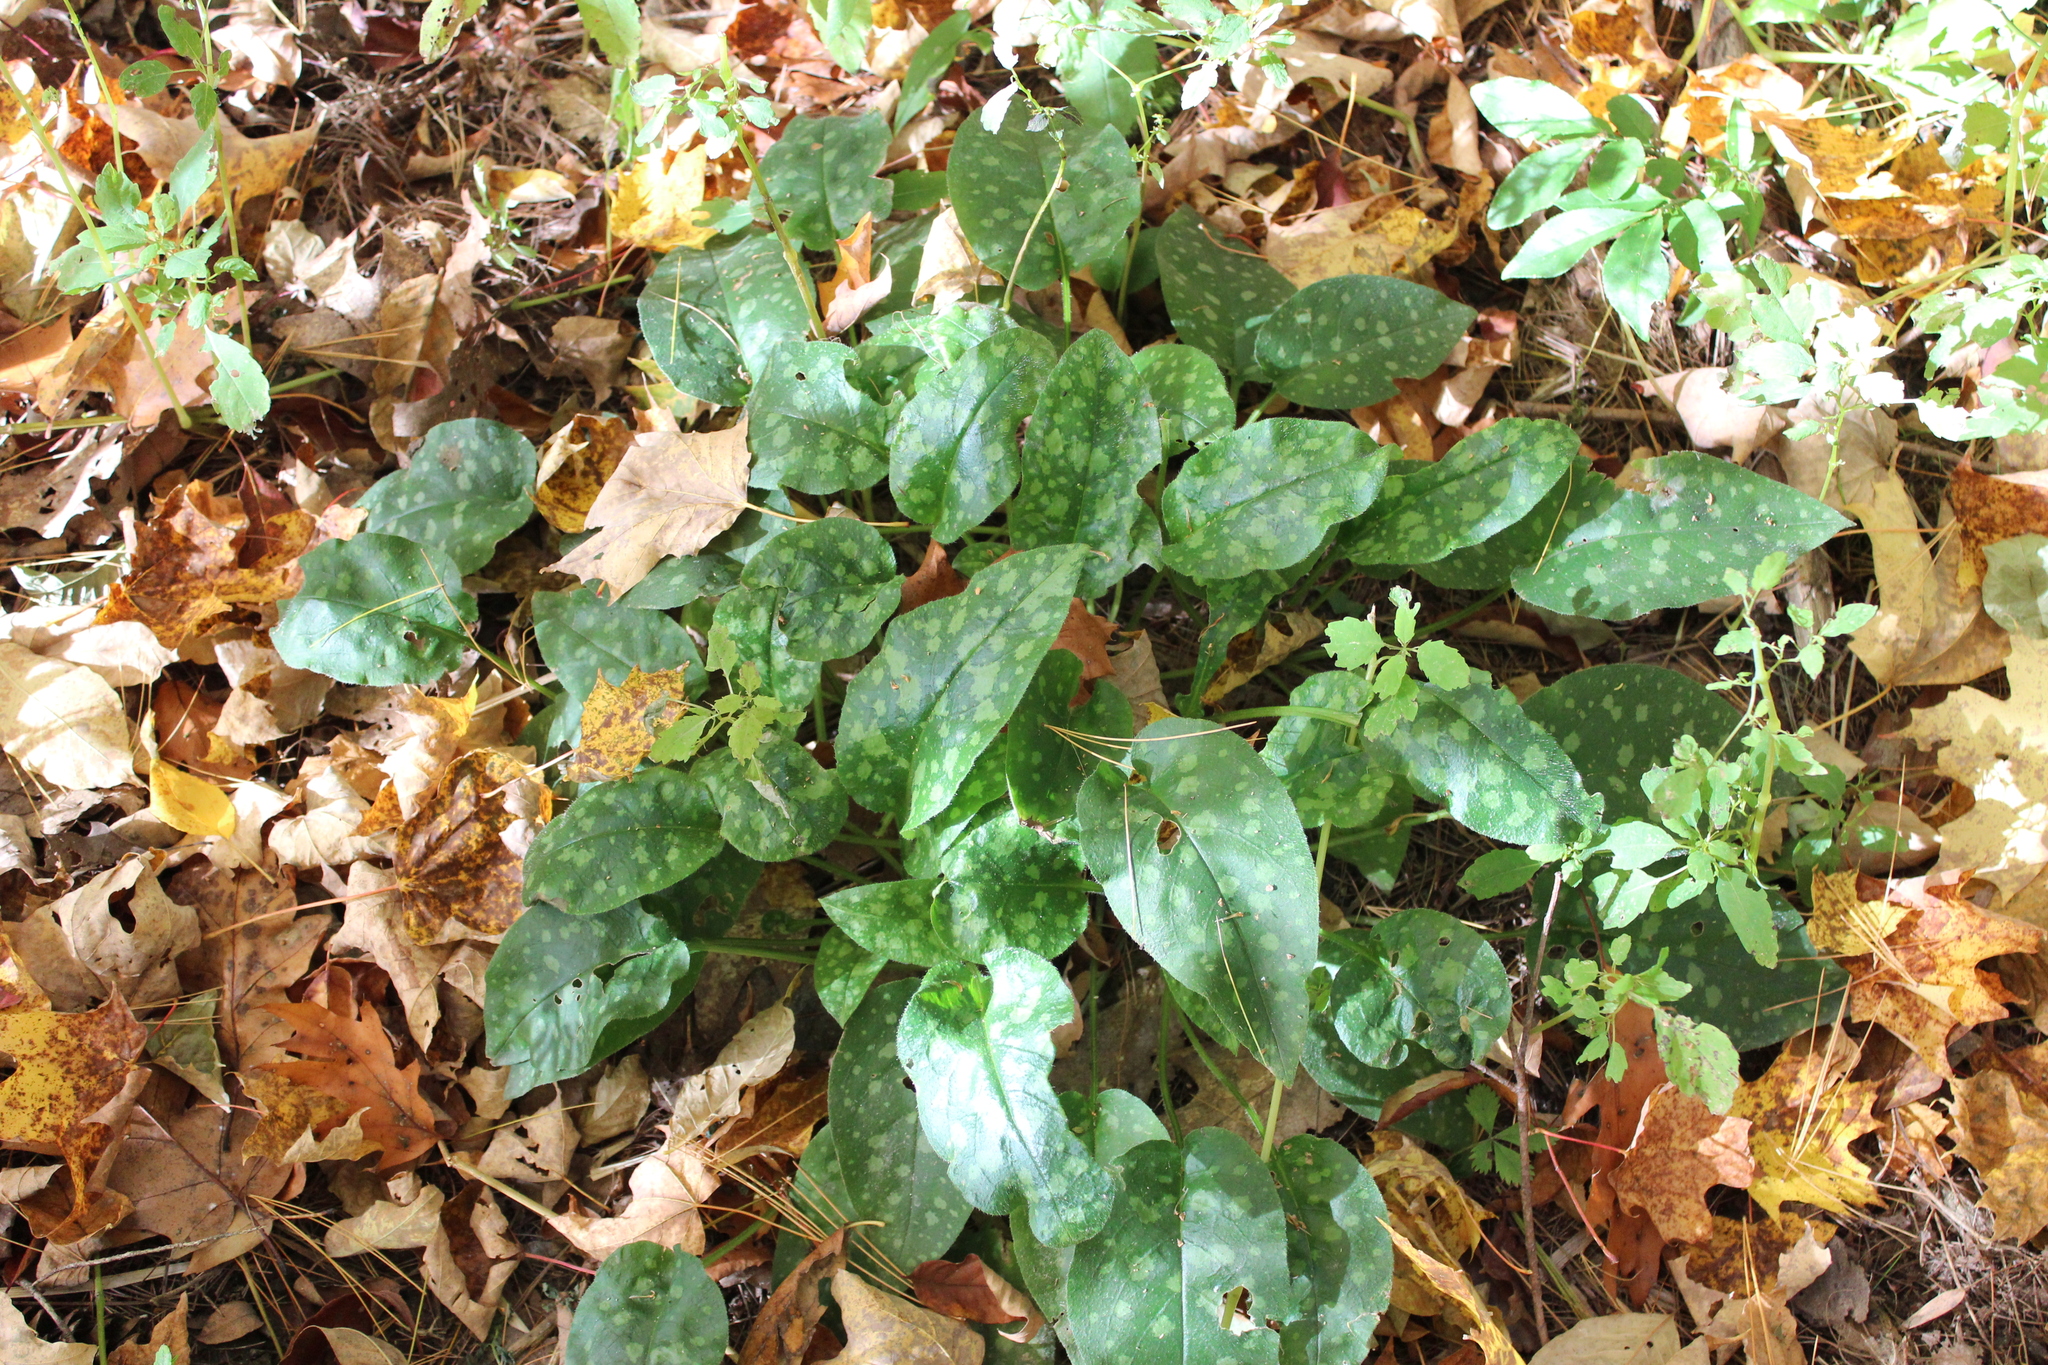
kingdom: Plantae
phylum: Tracheophyta
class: Magnoliopsida
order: Boraginales
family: Boraginaceae
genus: Pulmonaria
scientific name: Pulmonaria officinalis
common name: Lungwort
